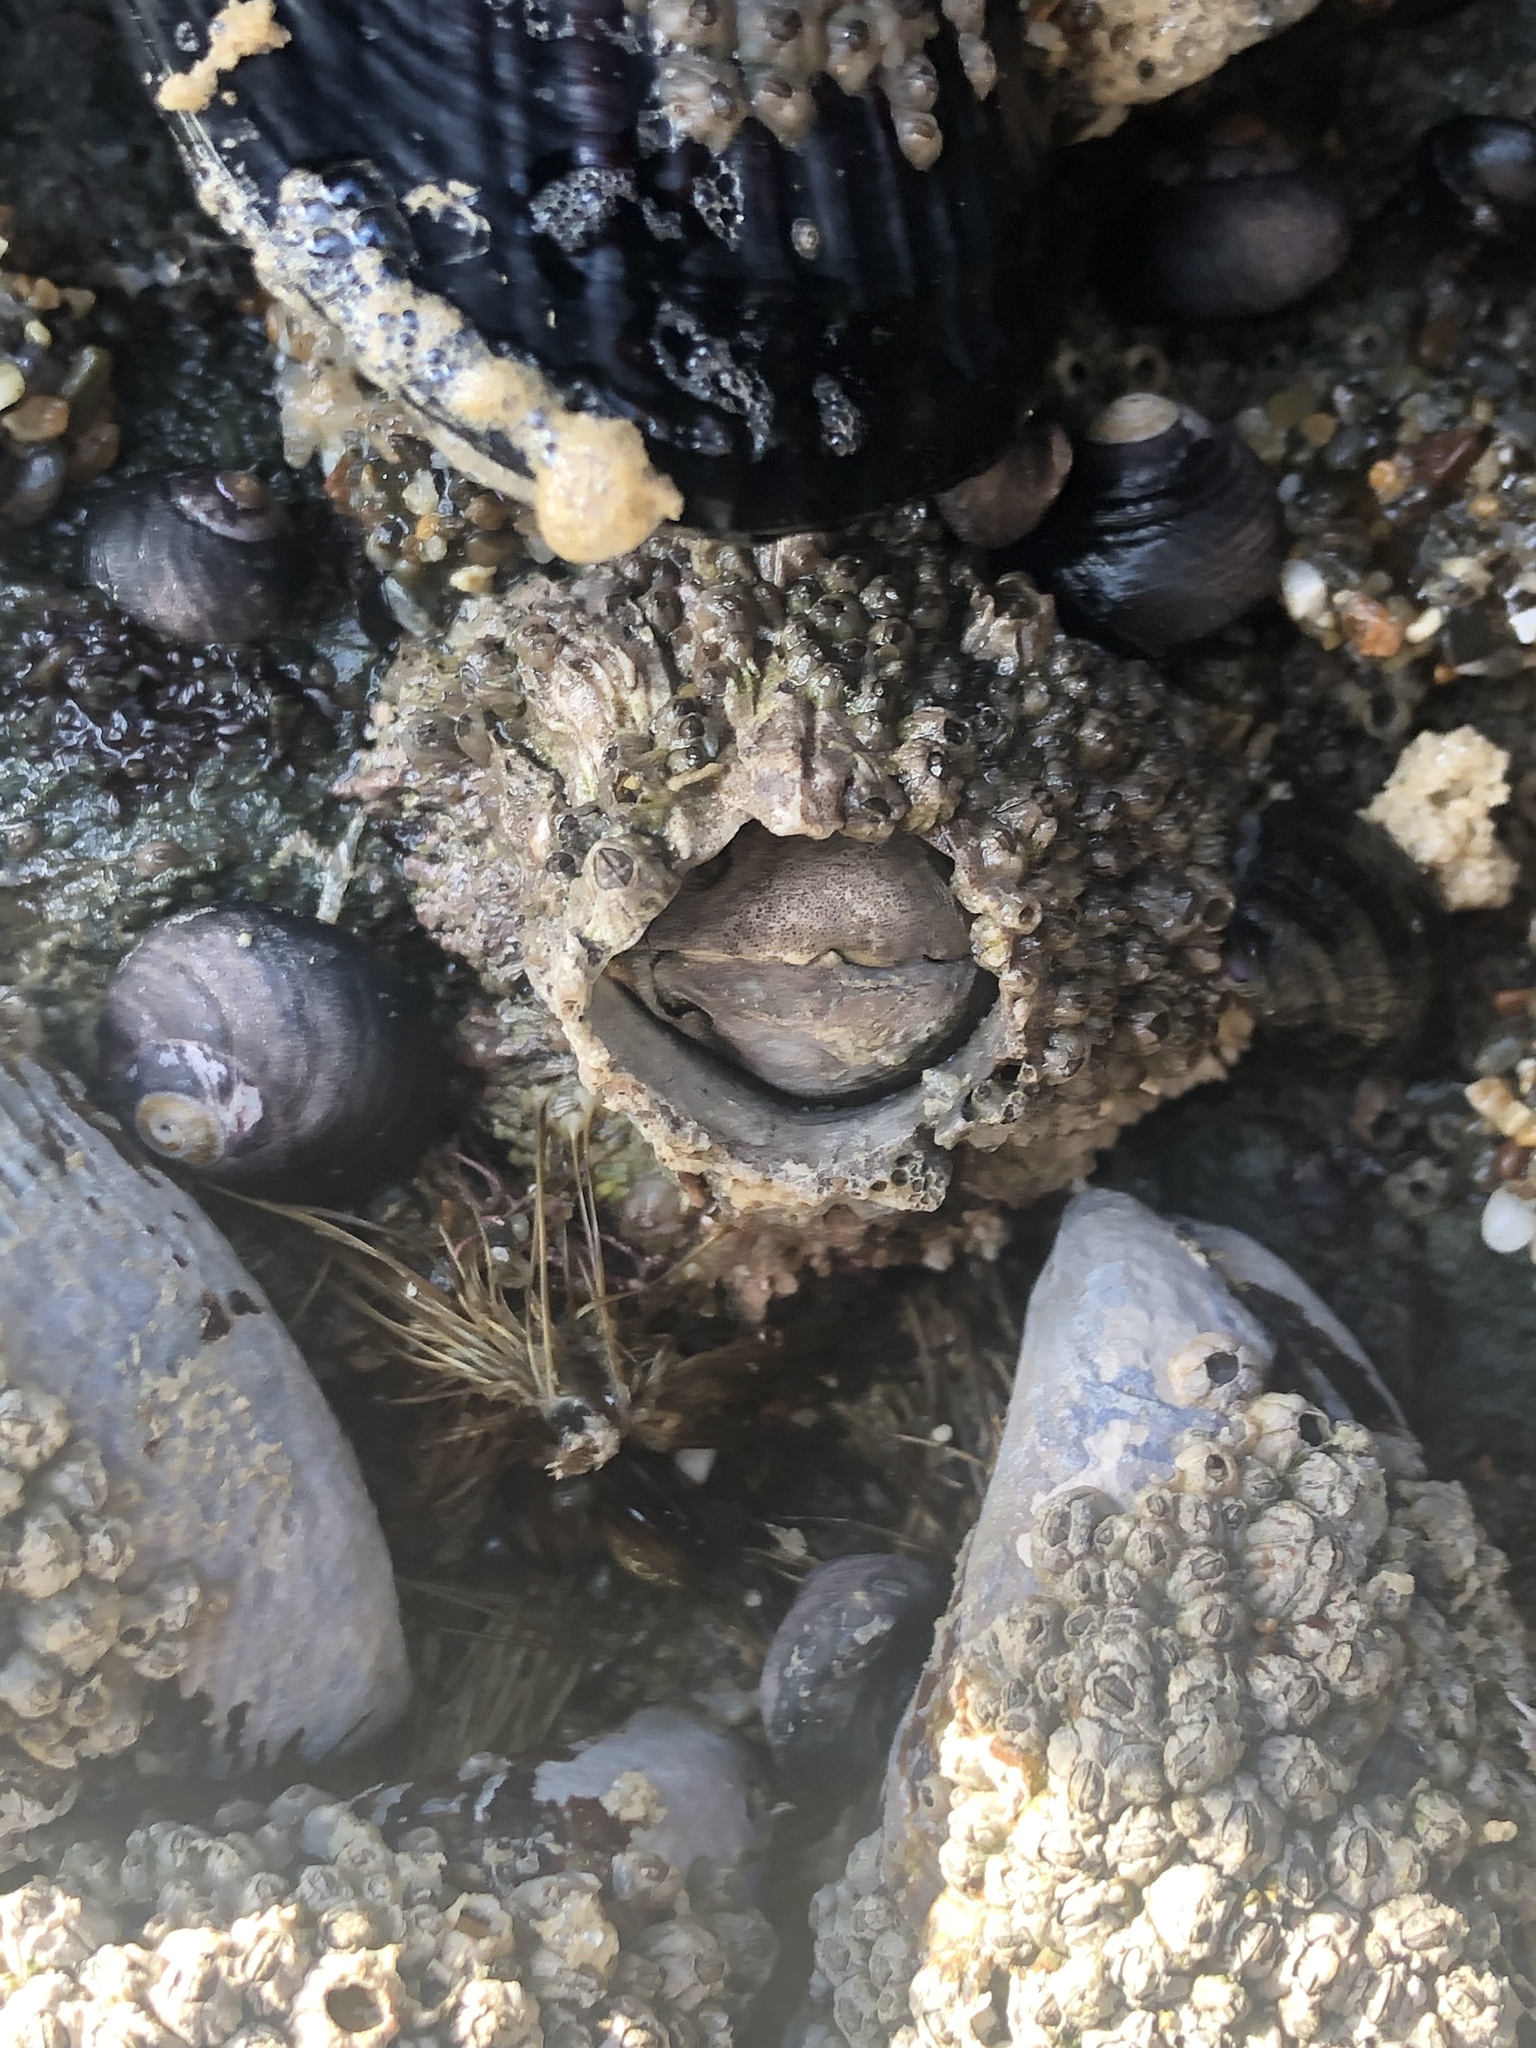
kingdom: Animalia
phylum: Arthropoda
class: Maxillopoda
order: Sessilia
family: Archaeobalanidae
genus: Semibalanus
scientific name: Semibalanus cariosus
